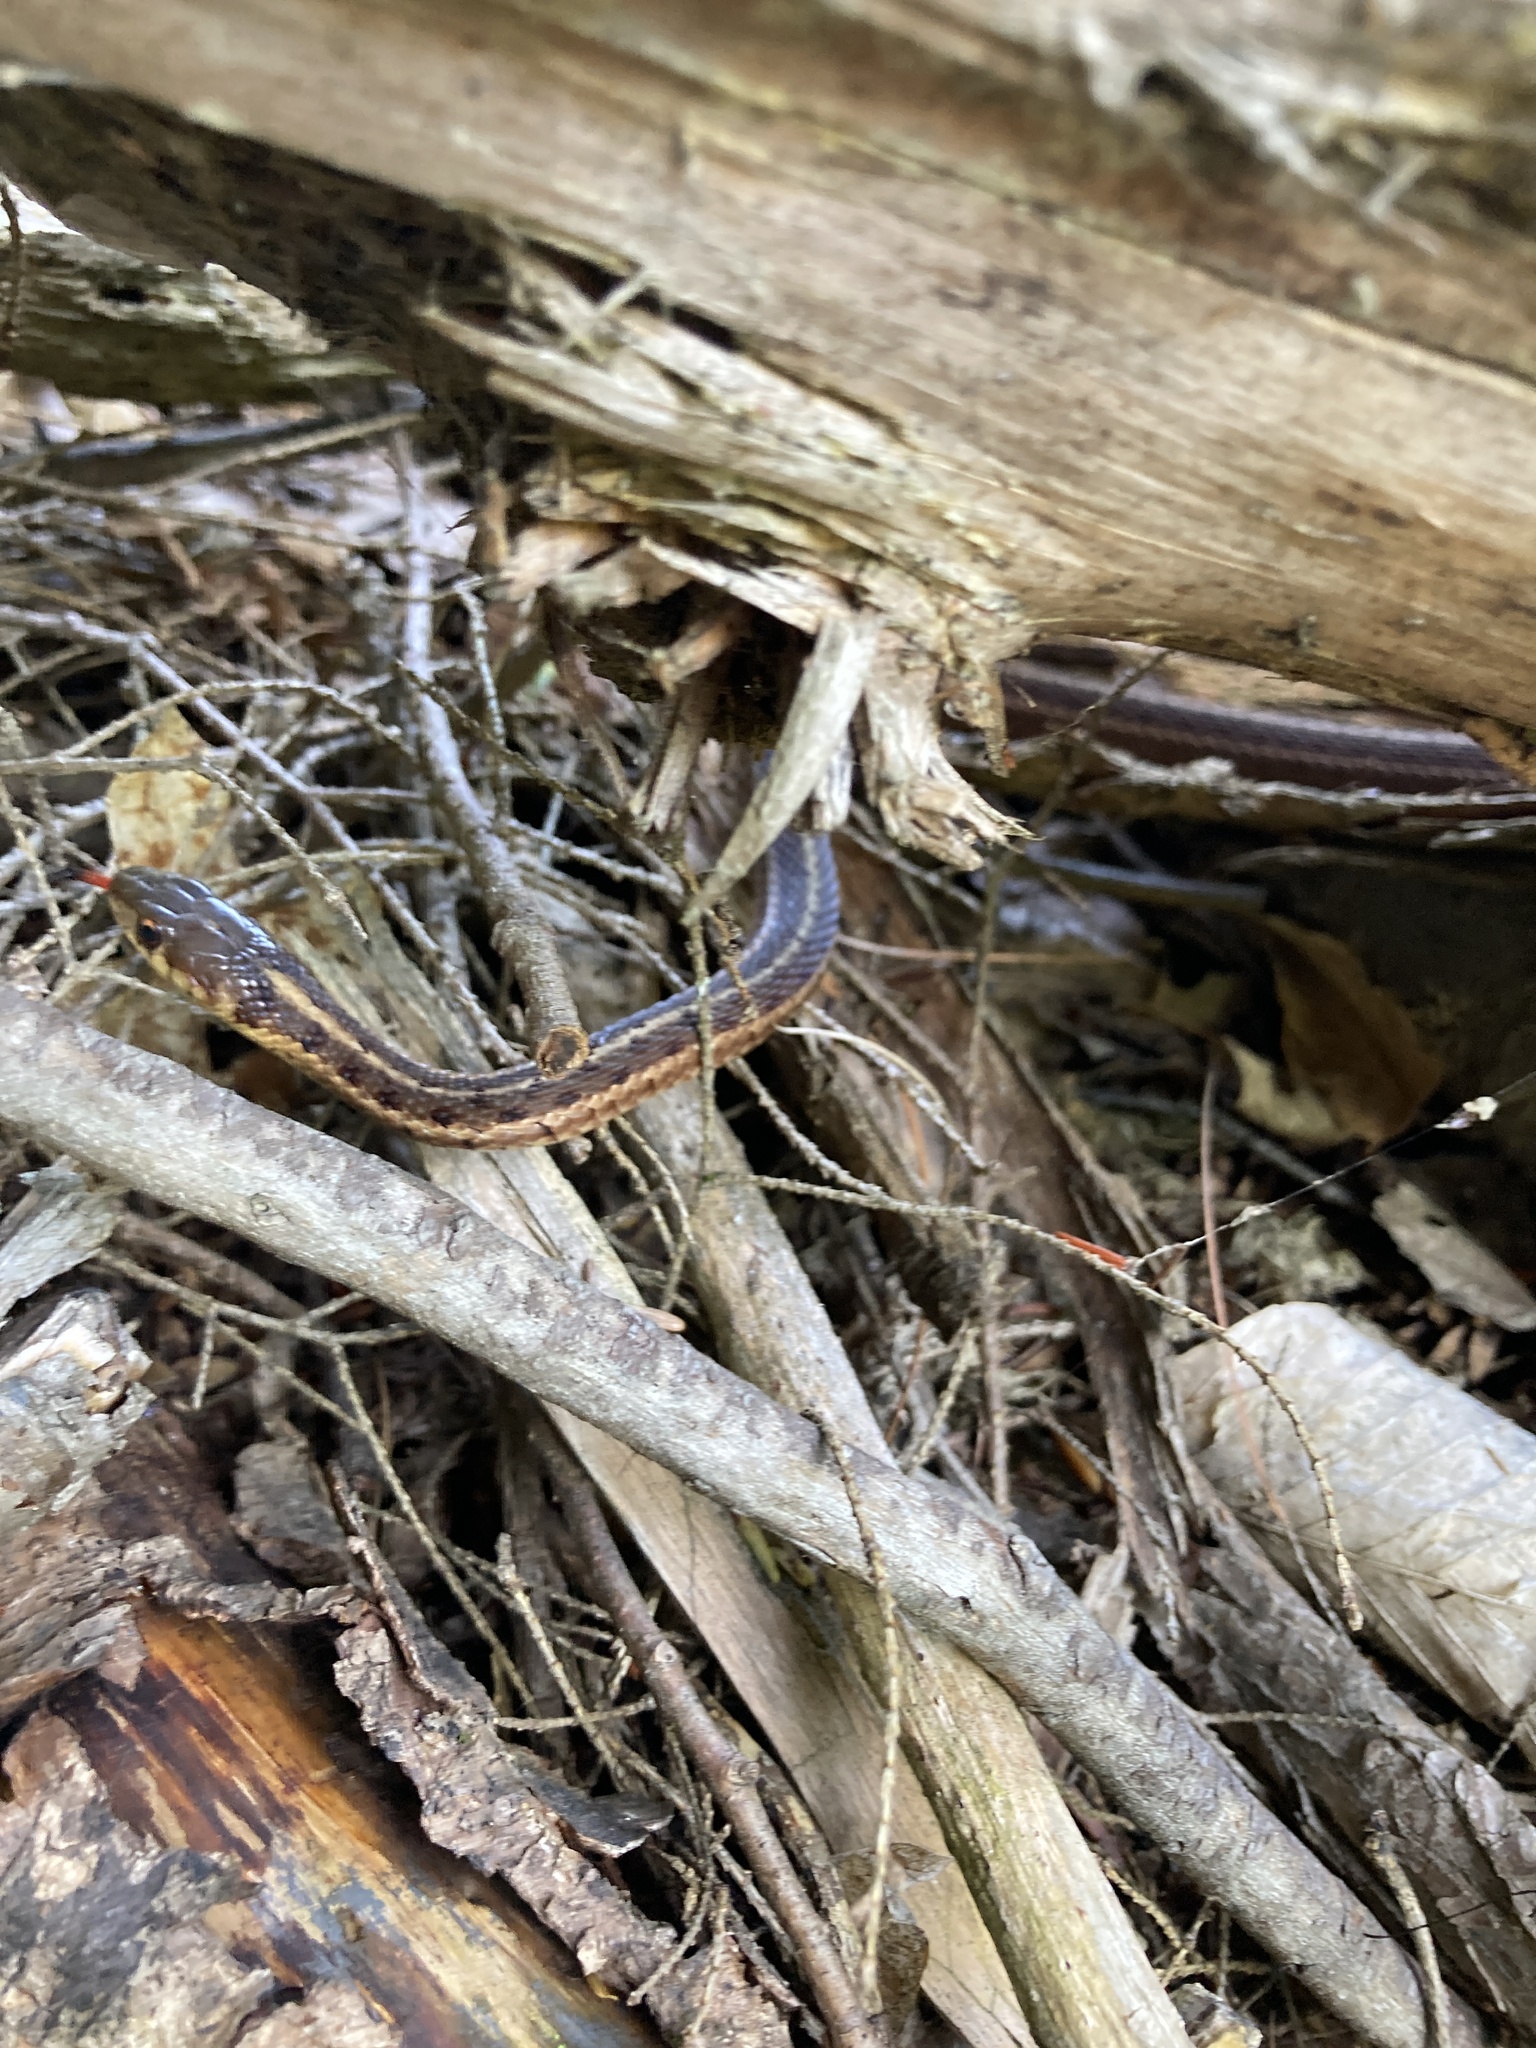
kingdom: Animalia
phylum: Chordata
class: Squamata
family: Colubridae
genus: Thamnophis
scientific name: Thamnophis sirtalis
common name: Common garter snake
